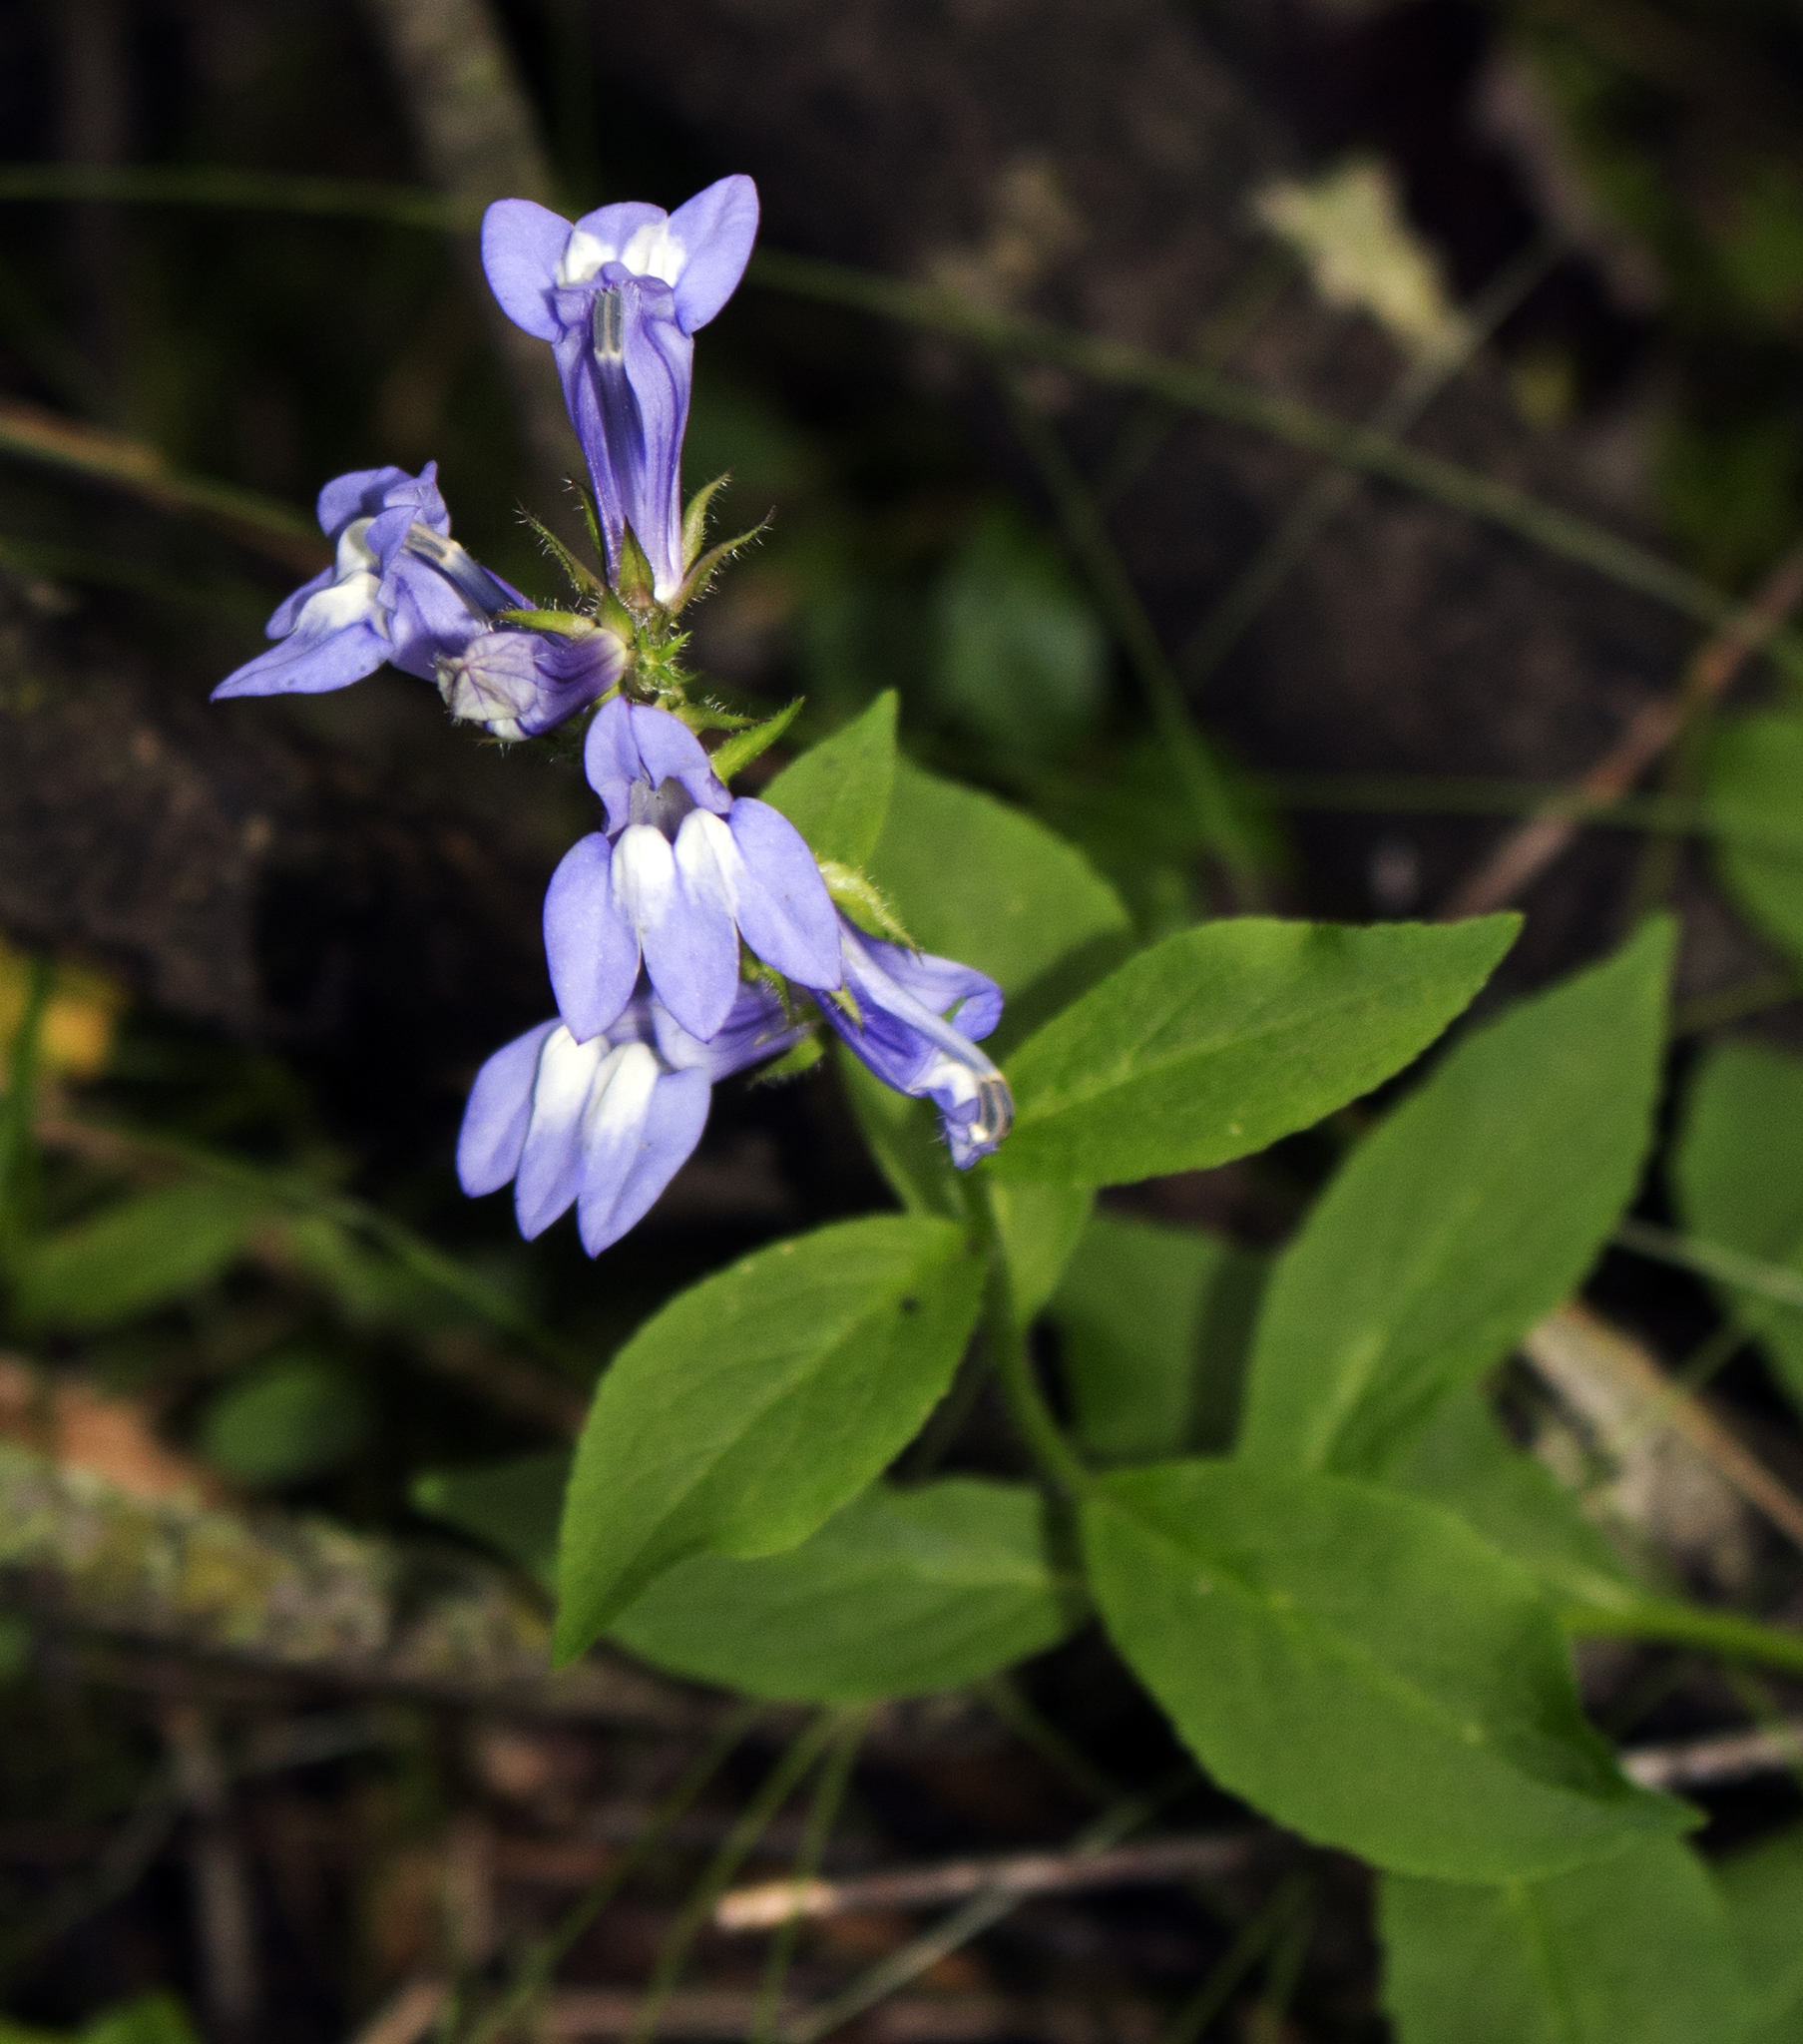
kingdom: Plantae
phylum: Tracheophyta
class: Magnoliopsida
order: Asterales
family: Campanulaceae
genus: Lobelia
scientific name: Lobelia siphilitica
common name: Great lobelia
